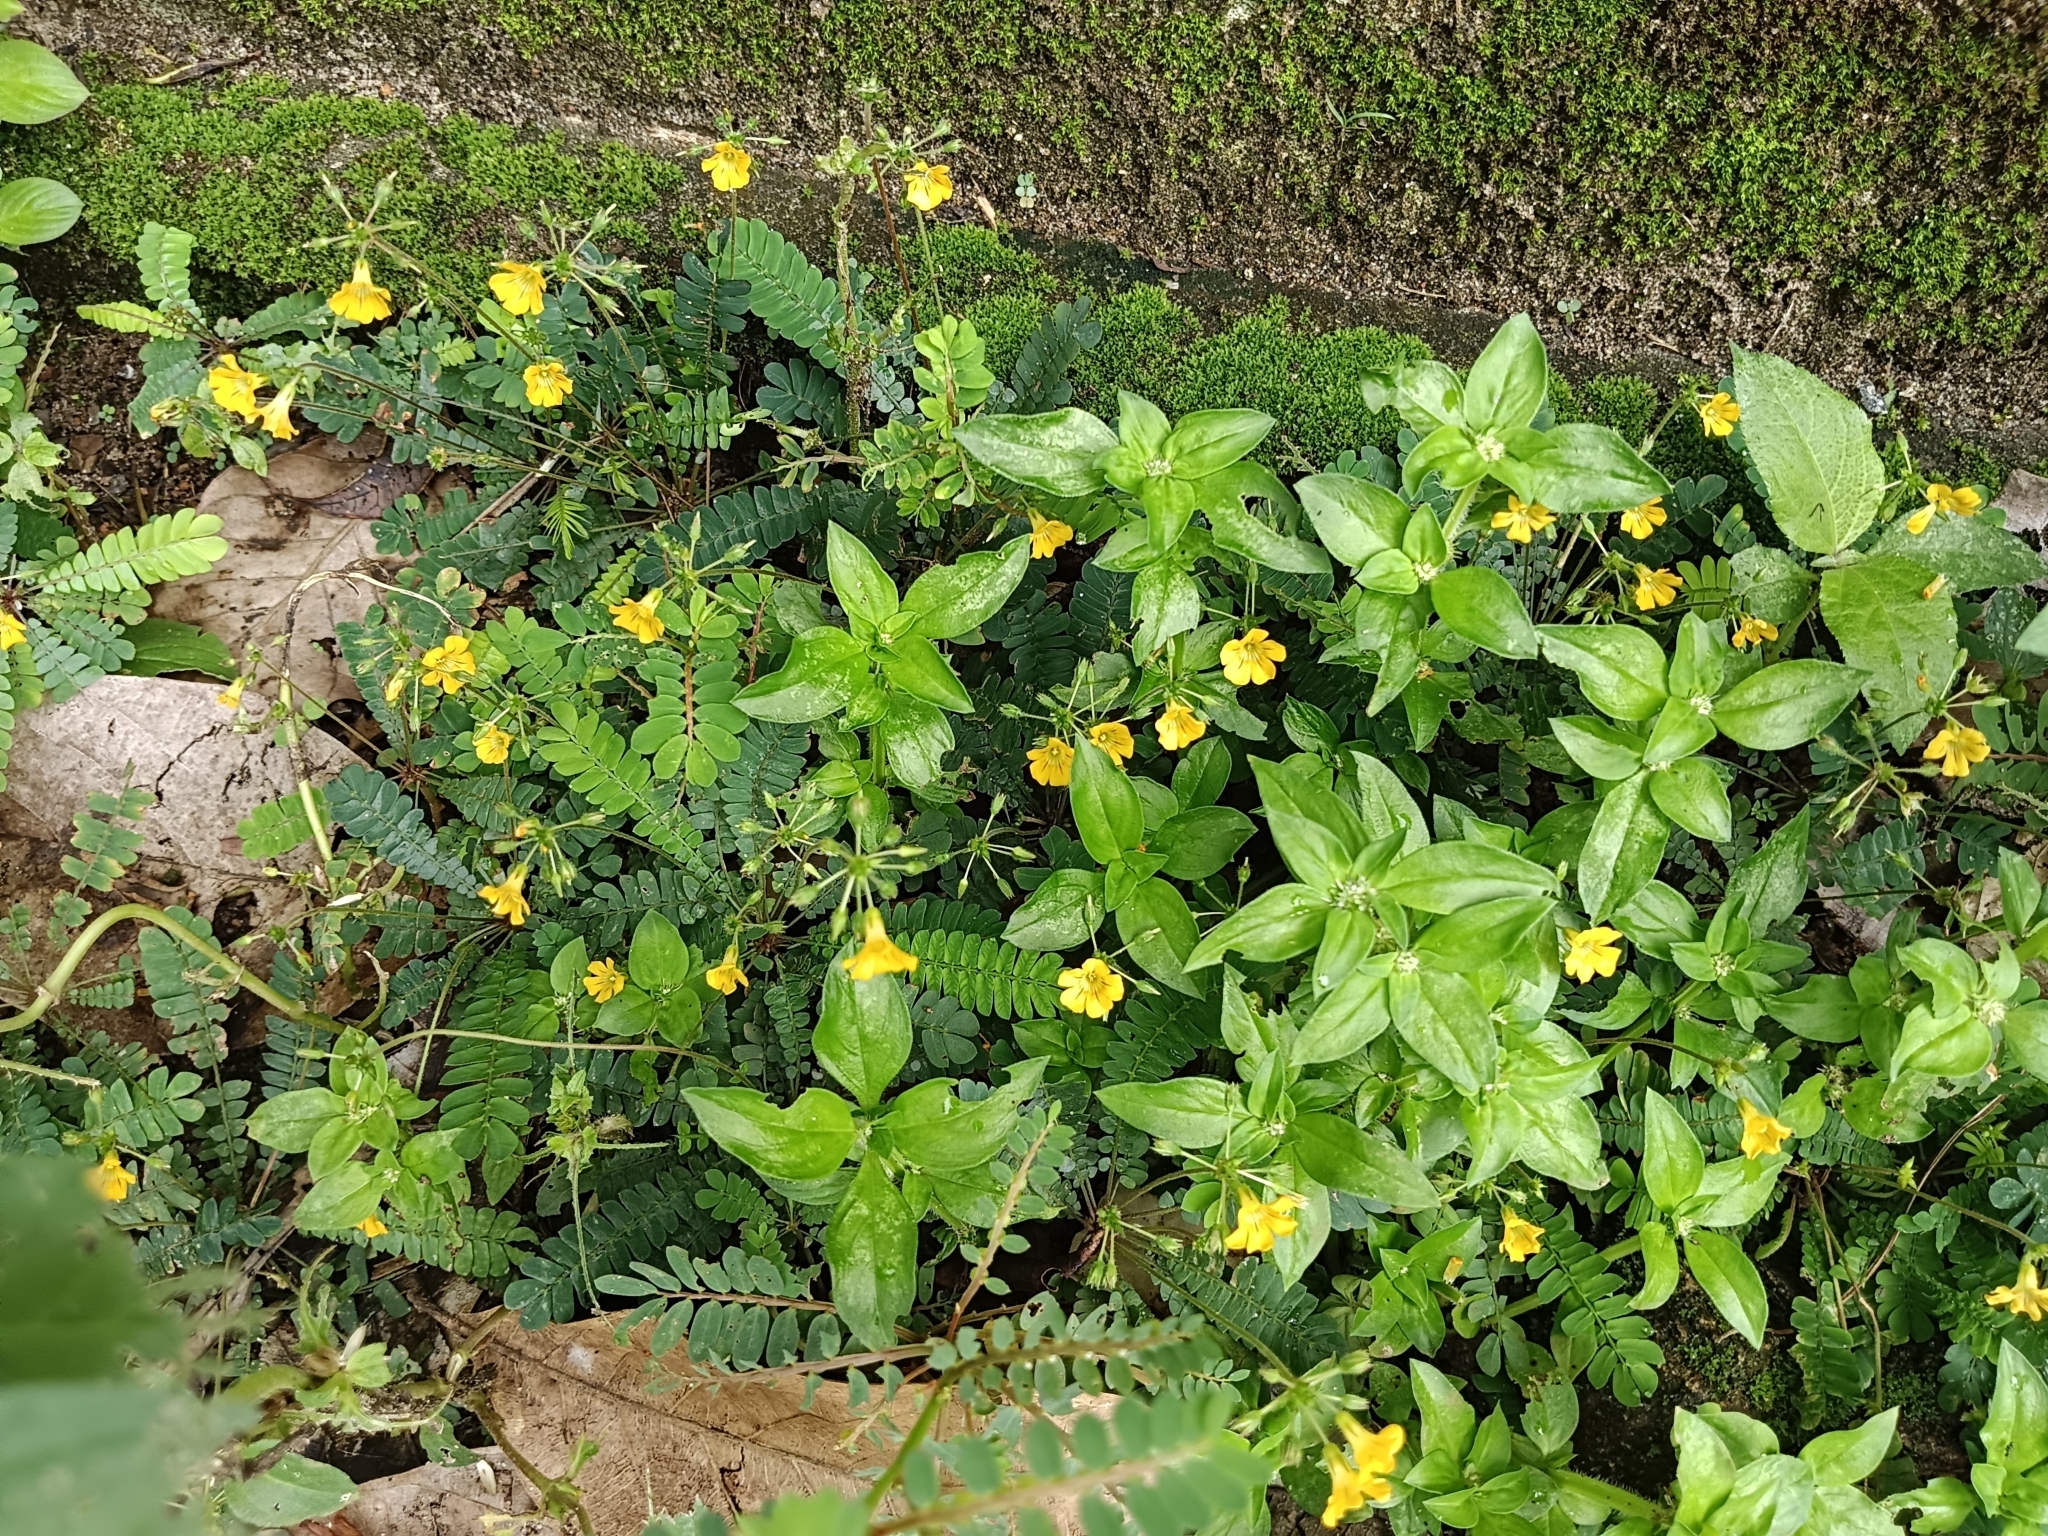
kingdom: Plantae
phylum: Tracheophyta
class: Magnoliopsida
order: Oxalidales
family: Oxalidaceae
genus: Biophytum
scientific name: Biophytum sensitivum
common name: Lifeplant
